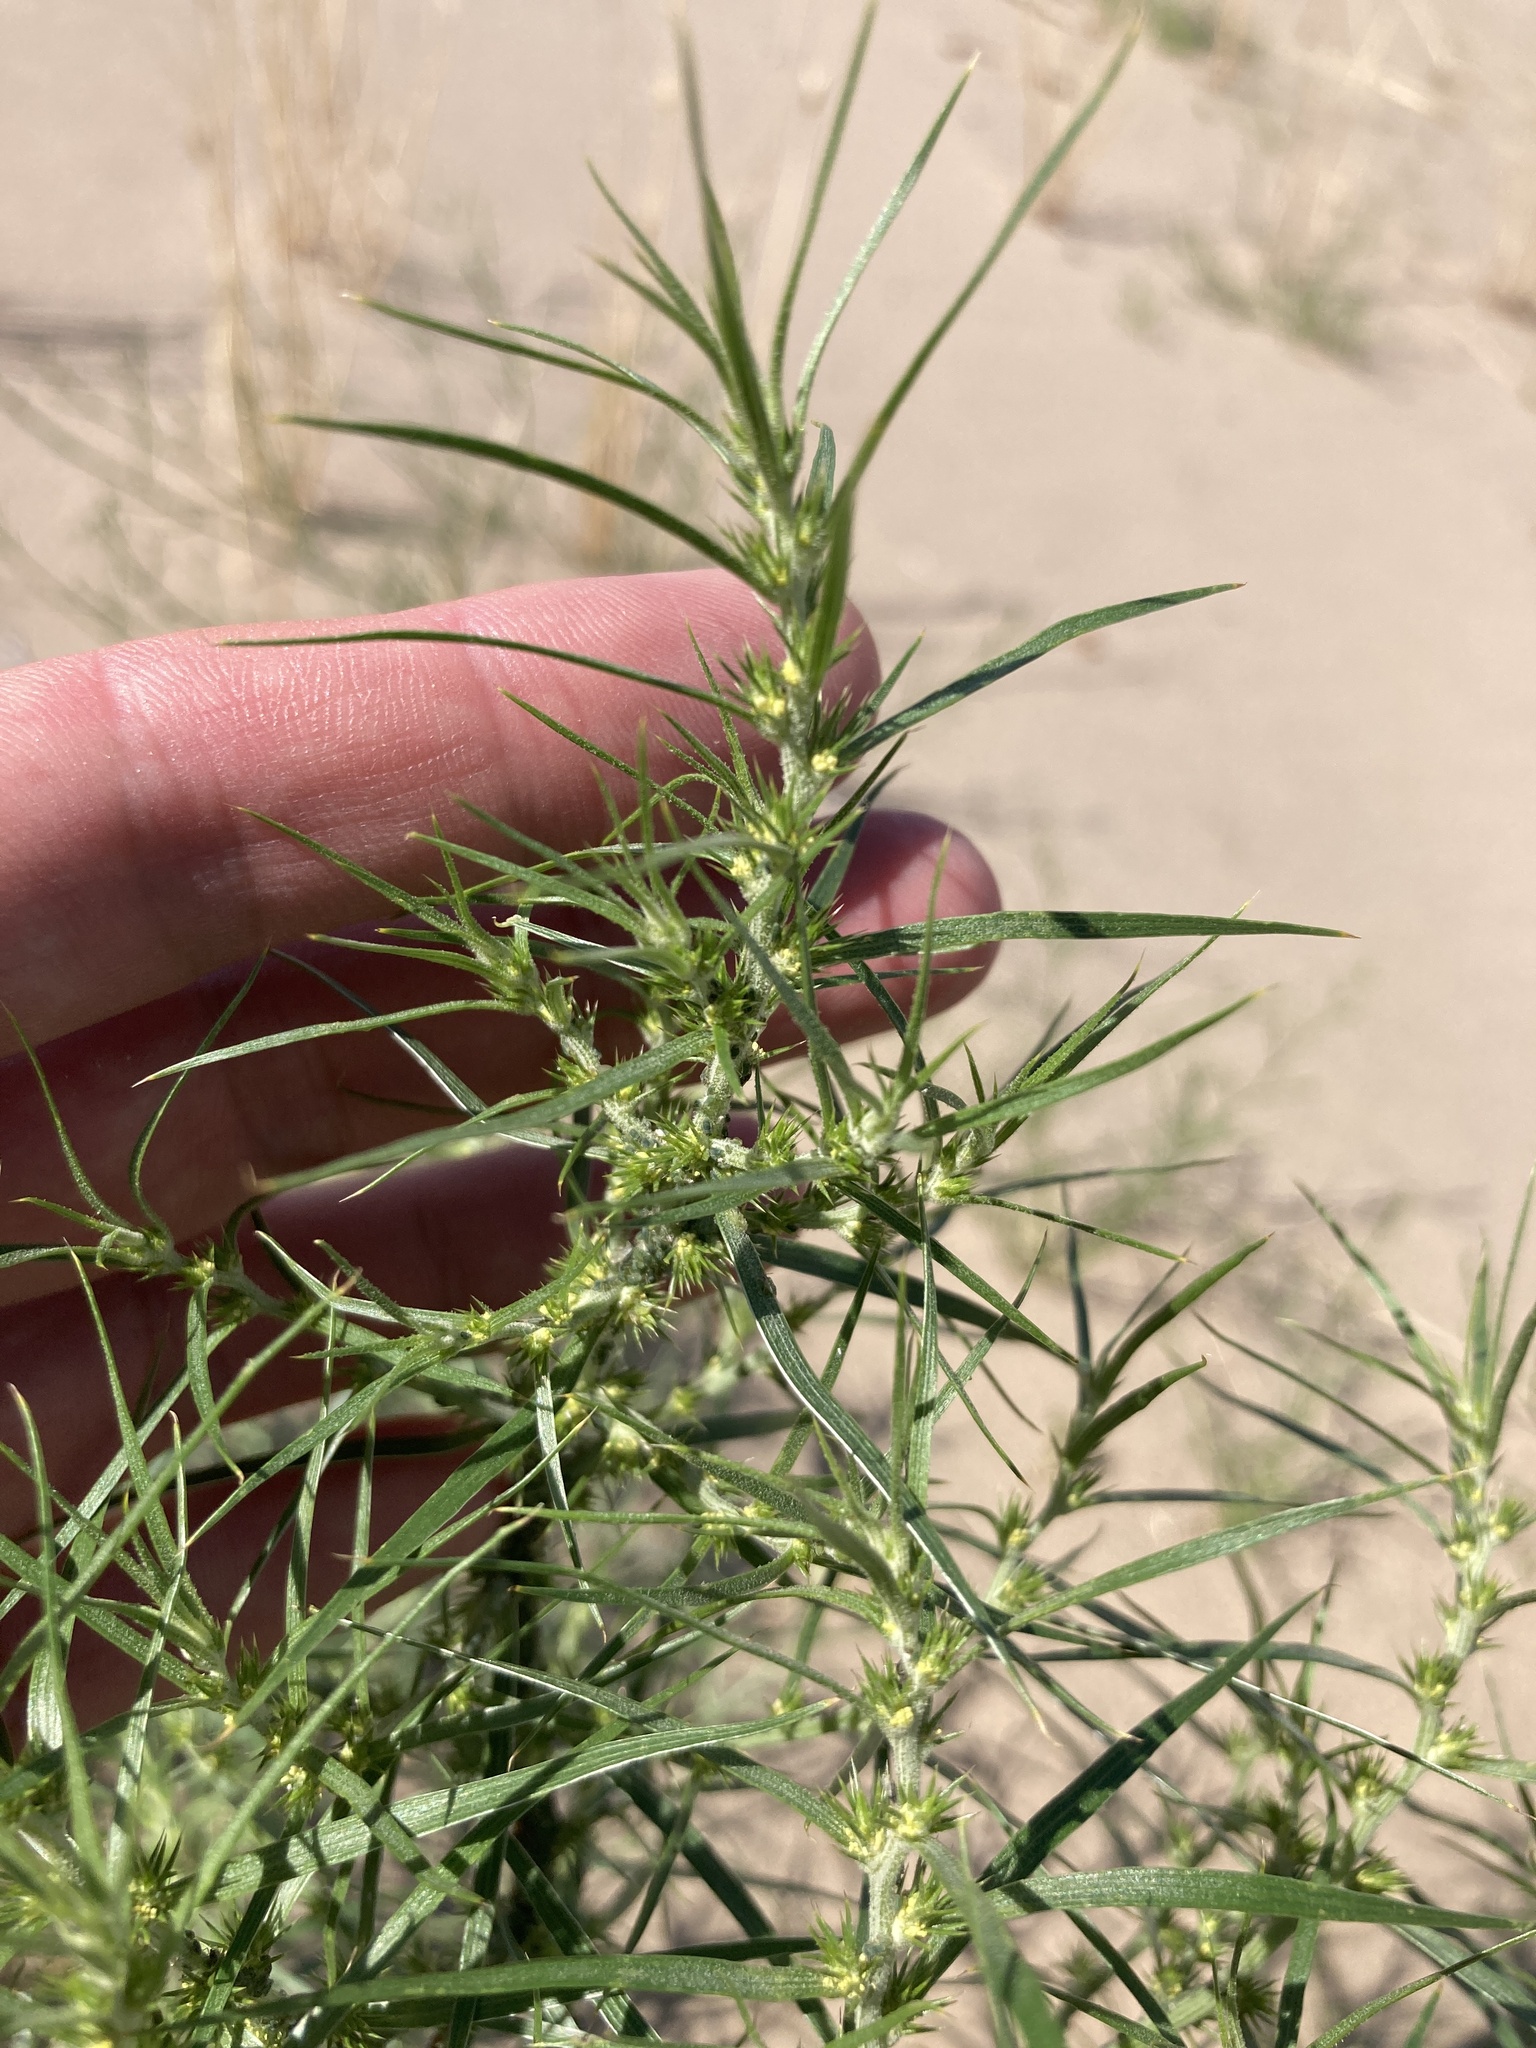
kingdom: Plantae
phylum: Tracheophyta
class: Magnoliopsida
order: Caryophyllales
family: Amaranthaceae
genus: Bassia
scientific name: Bassia scoparia
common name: Belvedere
